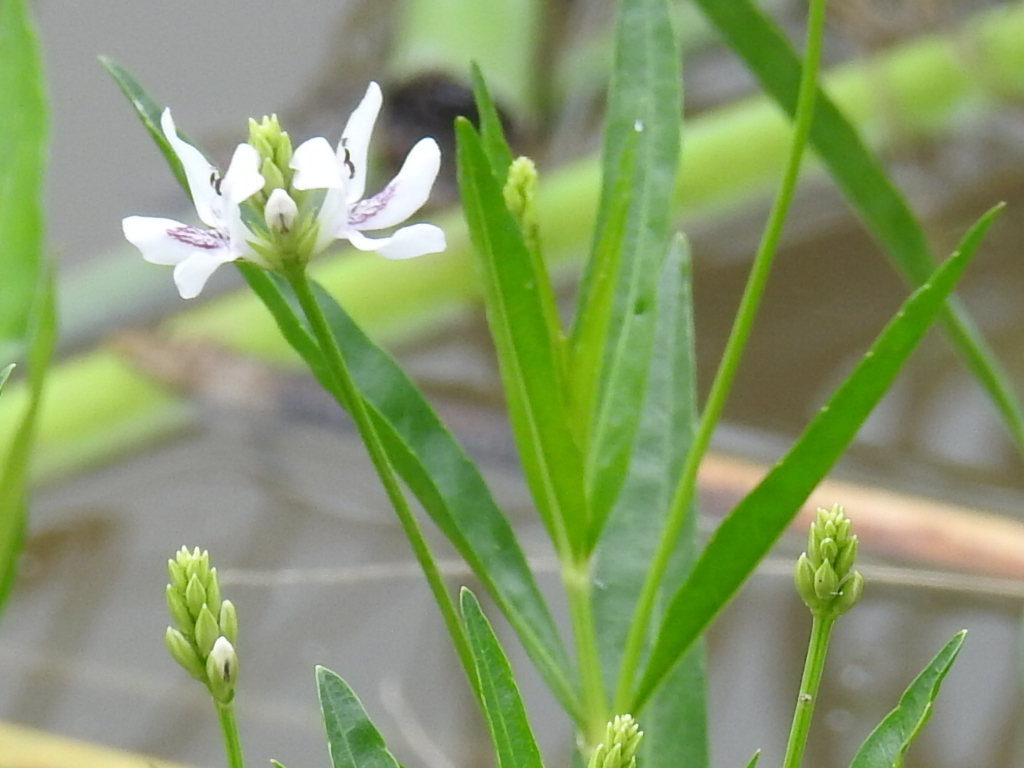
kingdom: Plantae
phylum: Tracheophyta
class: Magnoliopsida
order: Lamiales
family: Acanthaceae
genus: Dianthera
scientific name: Dianthera americana
